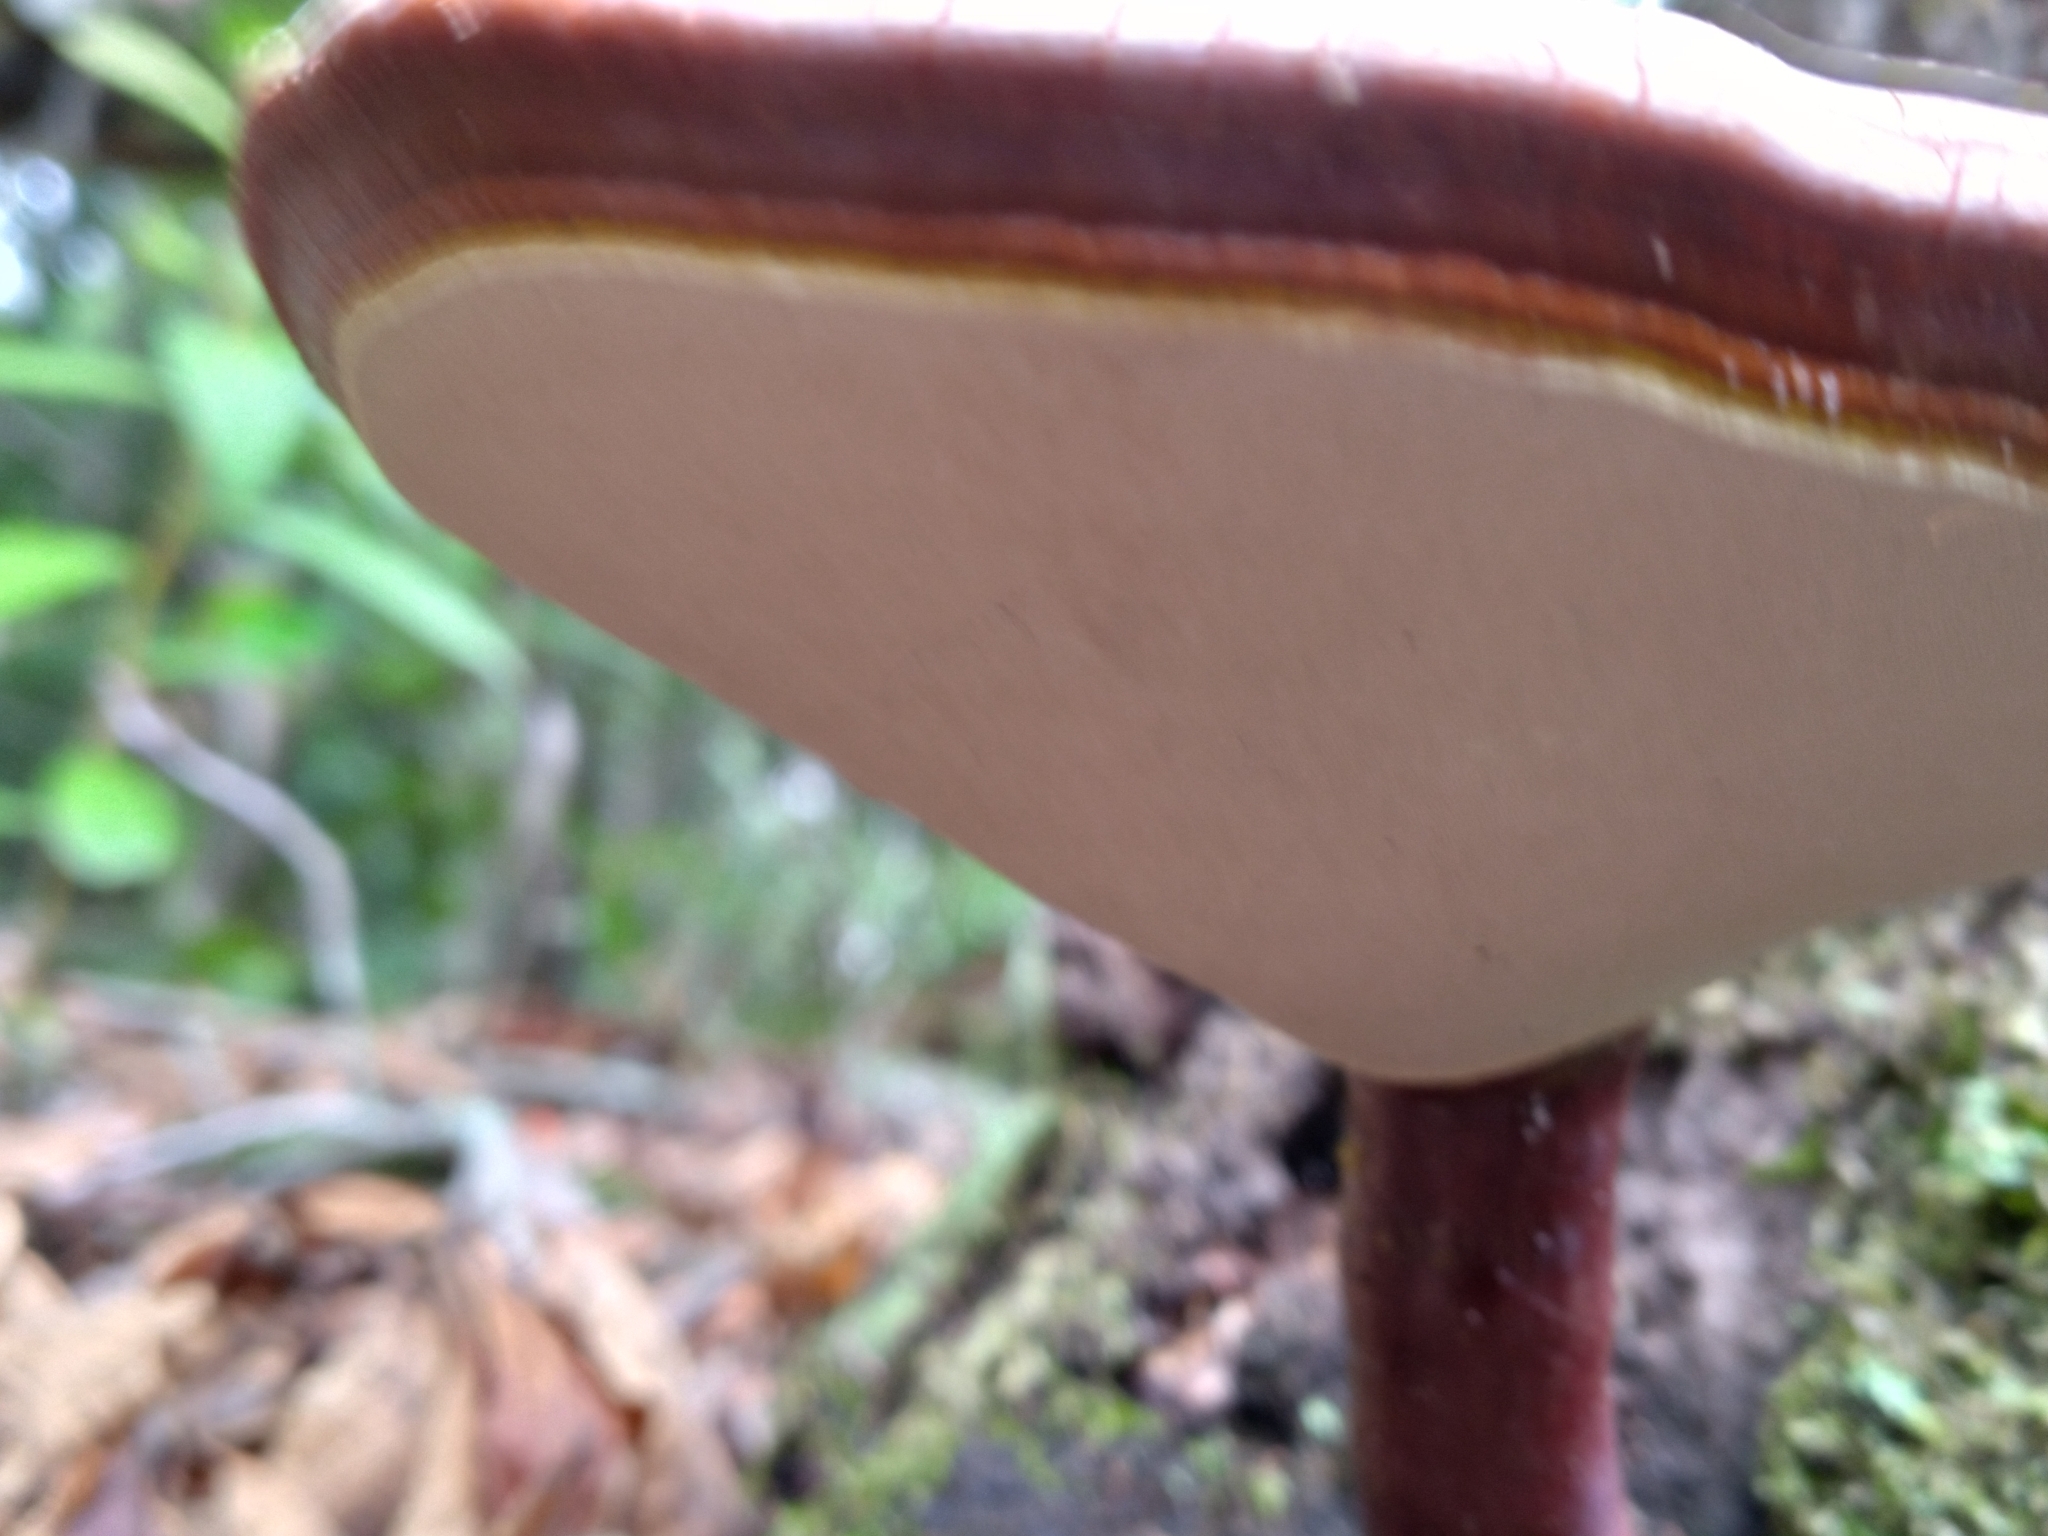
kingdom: Fungi
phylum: Basidiomycota
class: Agaricomycetes
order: Polyporales
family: Polyporaceae
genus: Ganoderma
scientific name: Ganoderma curtisii
